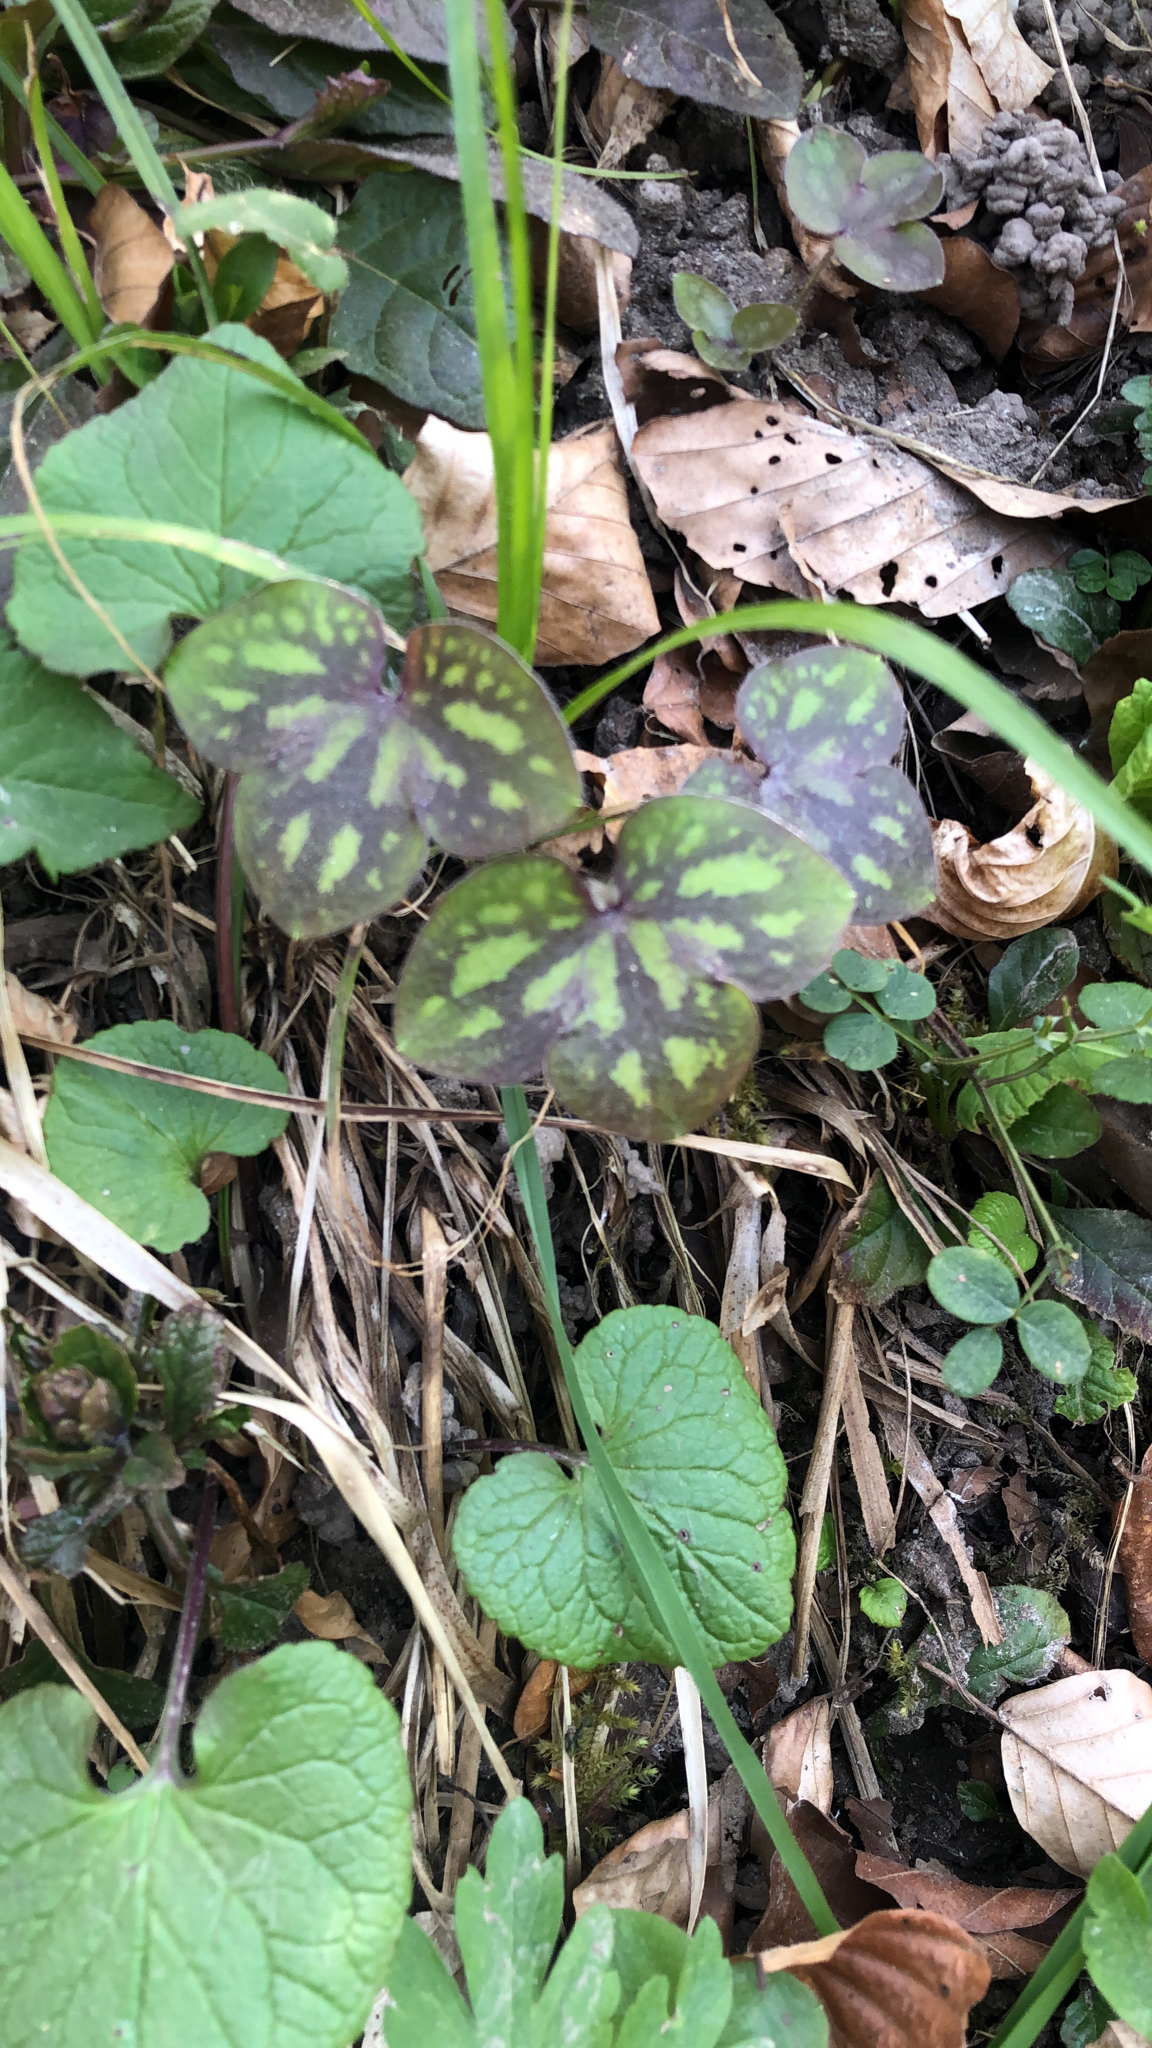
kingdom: Plantae
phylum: Tracheophyta
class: Magnoliopsida
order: Ranunculales
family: Ranunculaceae
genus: Hepatica
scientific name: Hepatica nobilis
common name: Liverleaf
